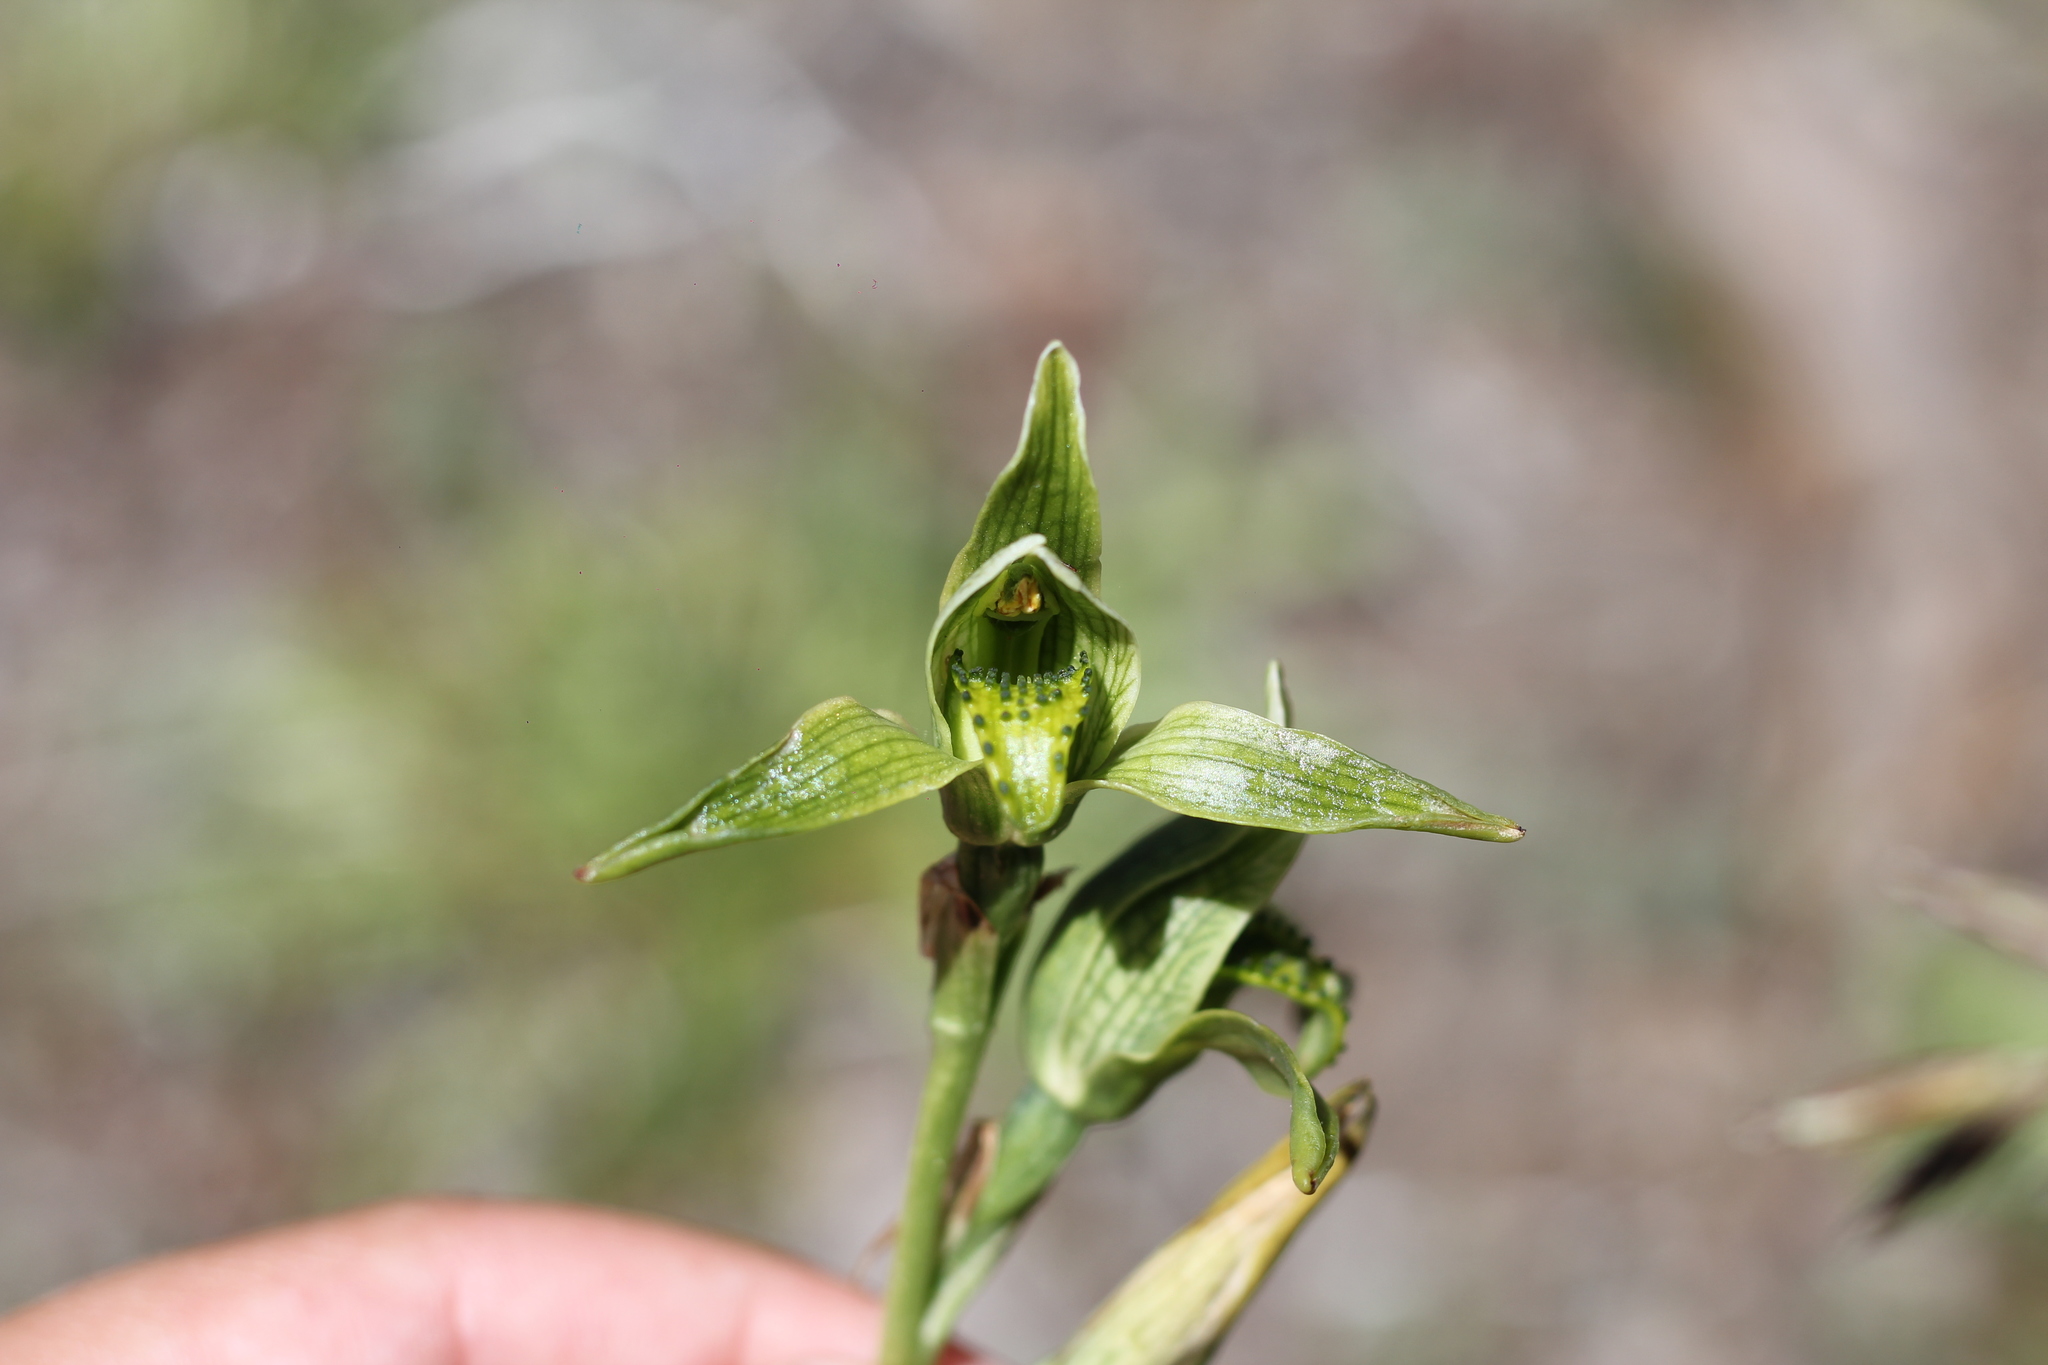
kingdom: Plantae
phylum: Tracheophyta
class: Liliopsida
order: Asparagales
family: Orchidaceae
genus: Chloraea
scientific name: Chloraea viridiflora
